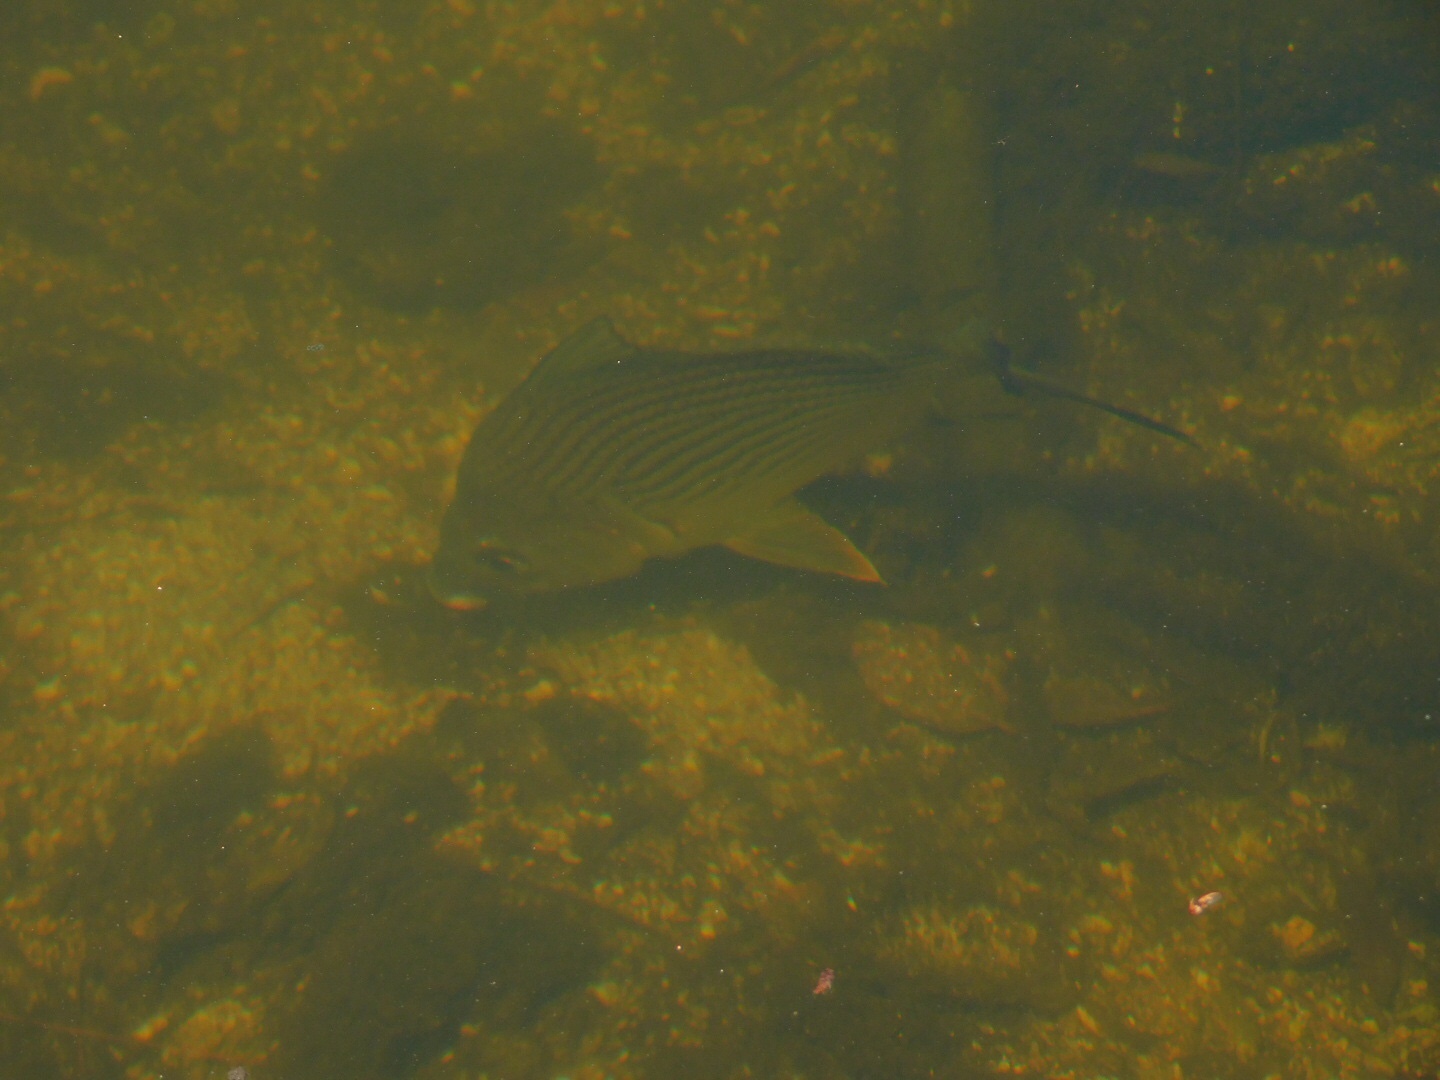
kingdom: Animalia
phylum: Chordata
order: Perciformes
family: Gerreidae
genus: Eugerres
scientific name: Eugerres plumieri
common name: Striped mojarra
